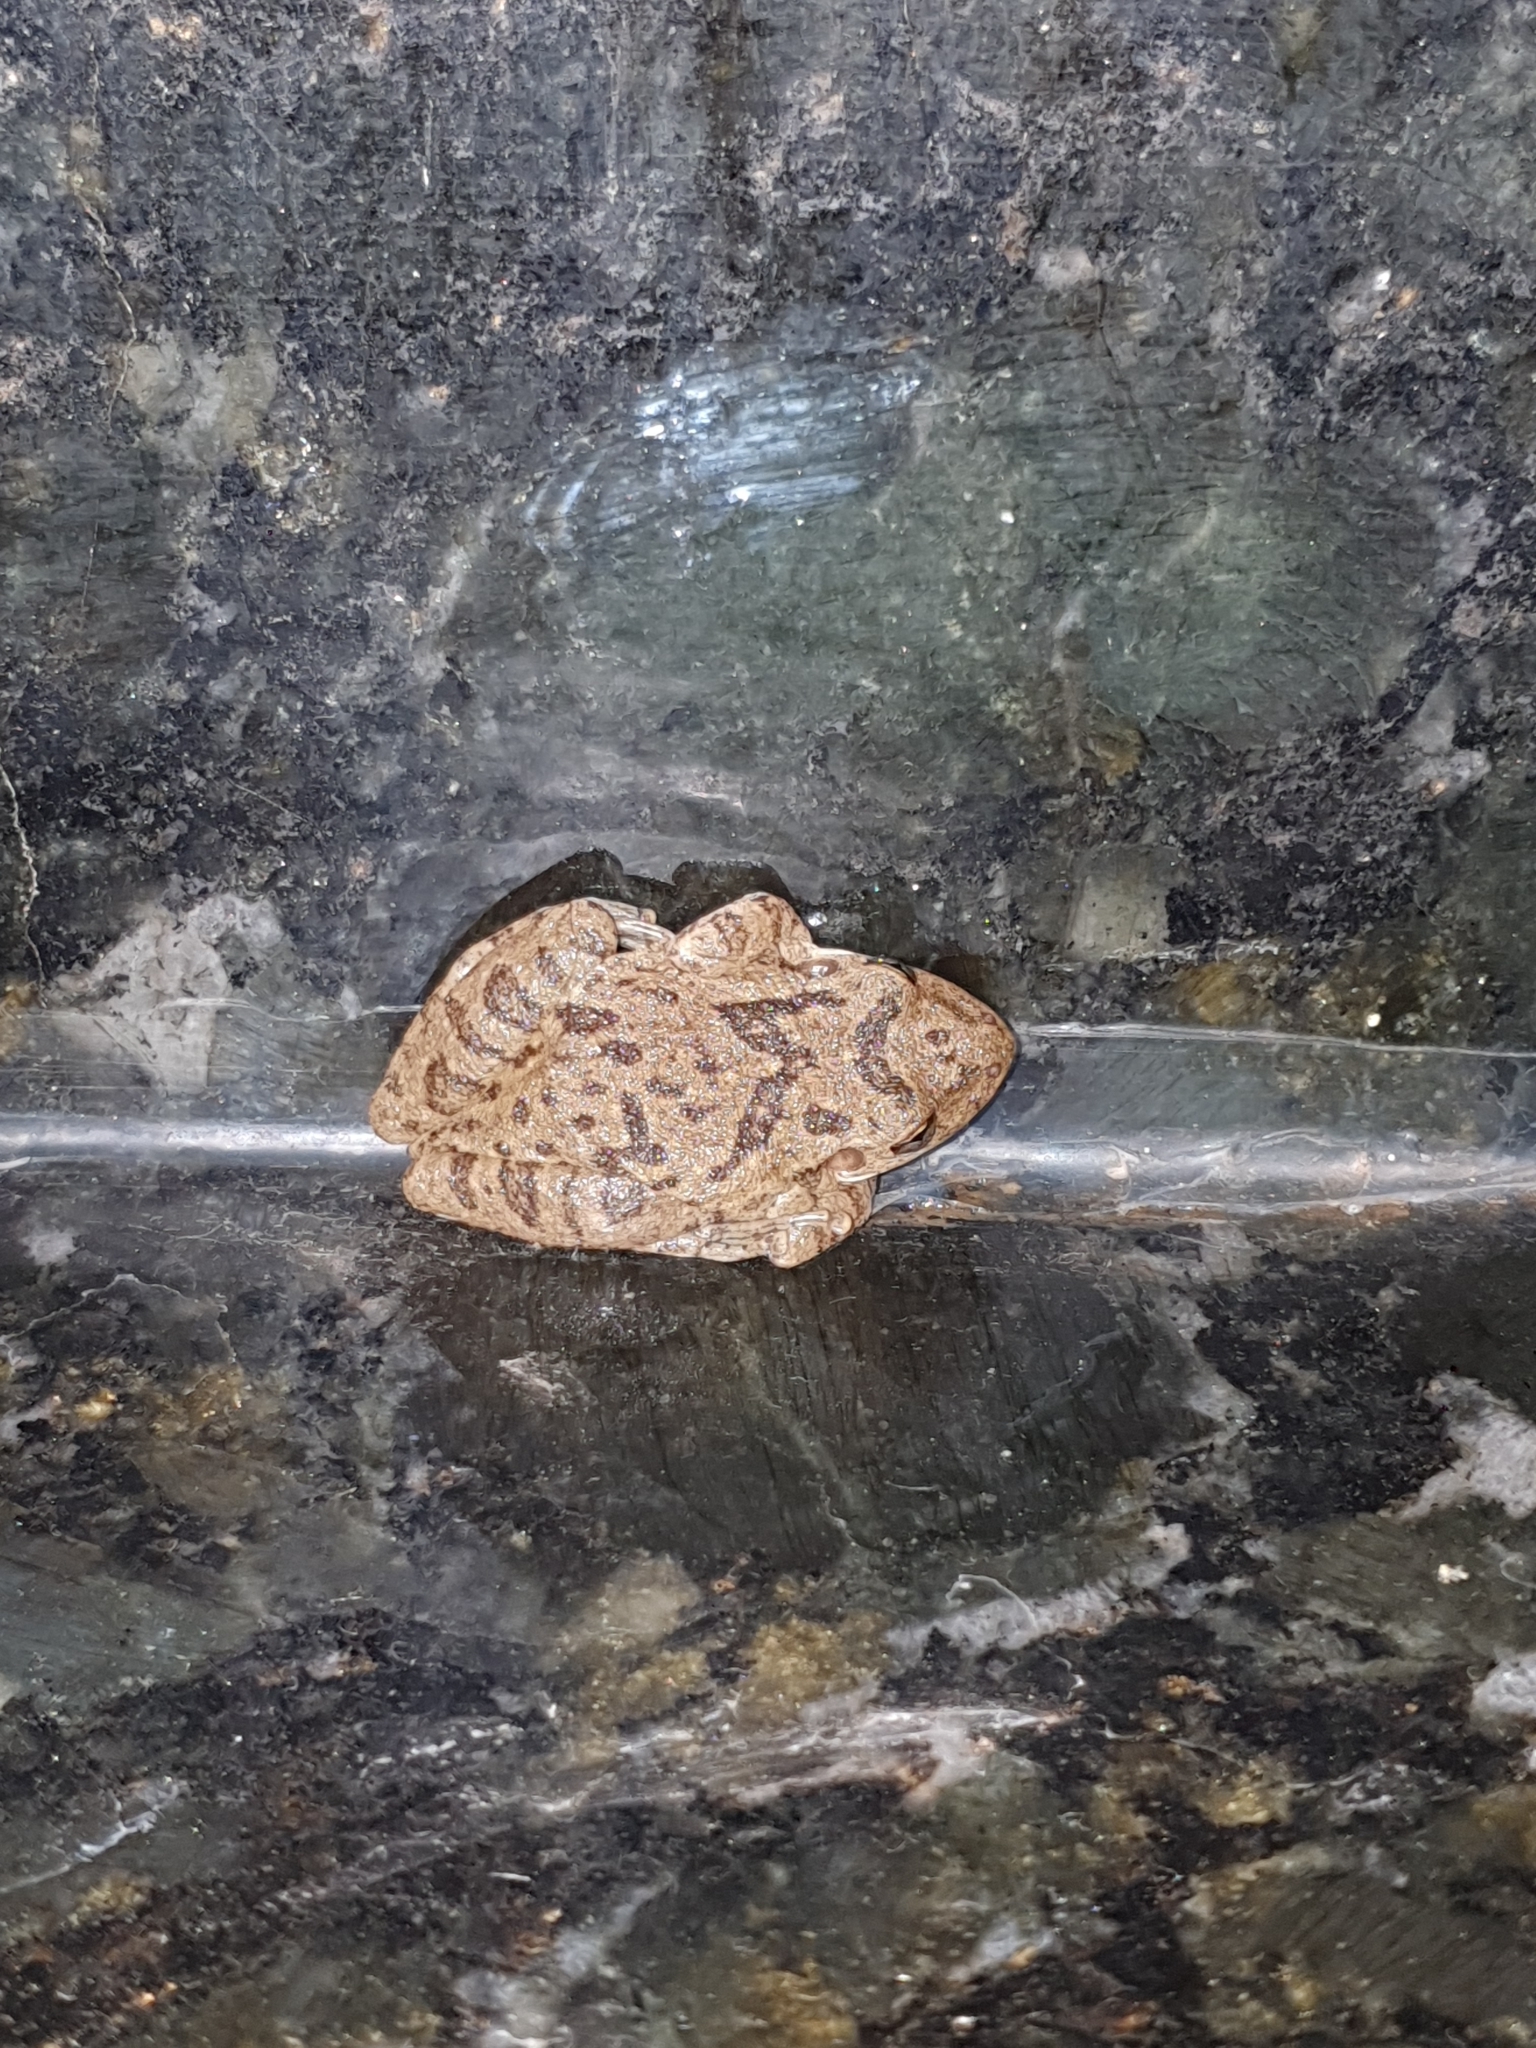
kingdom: Animalia
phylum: Chordata
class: Amphibia
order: Anura
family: Hylidae
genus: Scinax
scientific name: Scinax fuscovarius
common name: Fuscous-blotched treefrog
